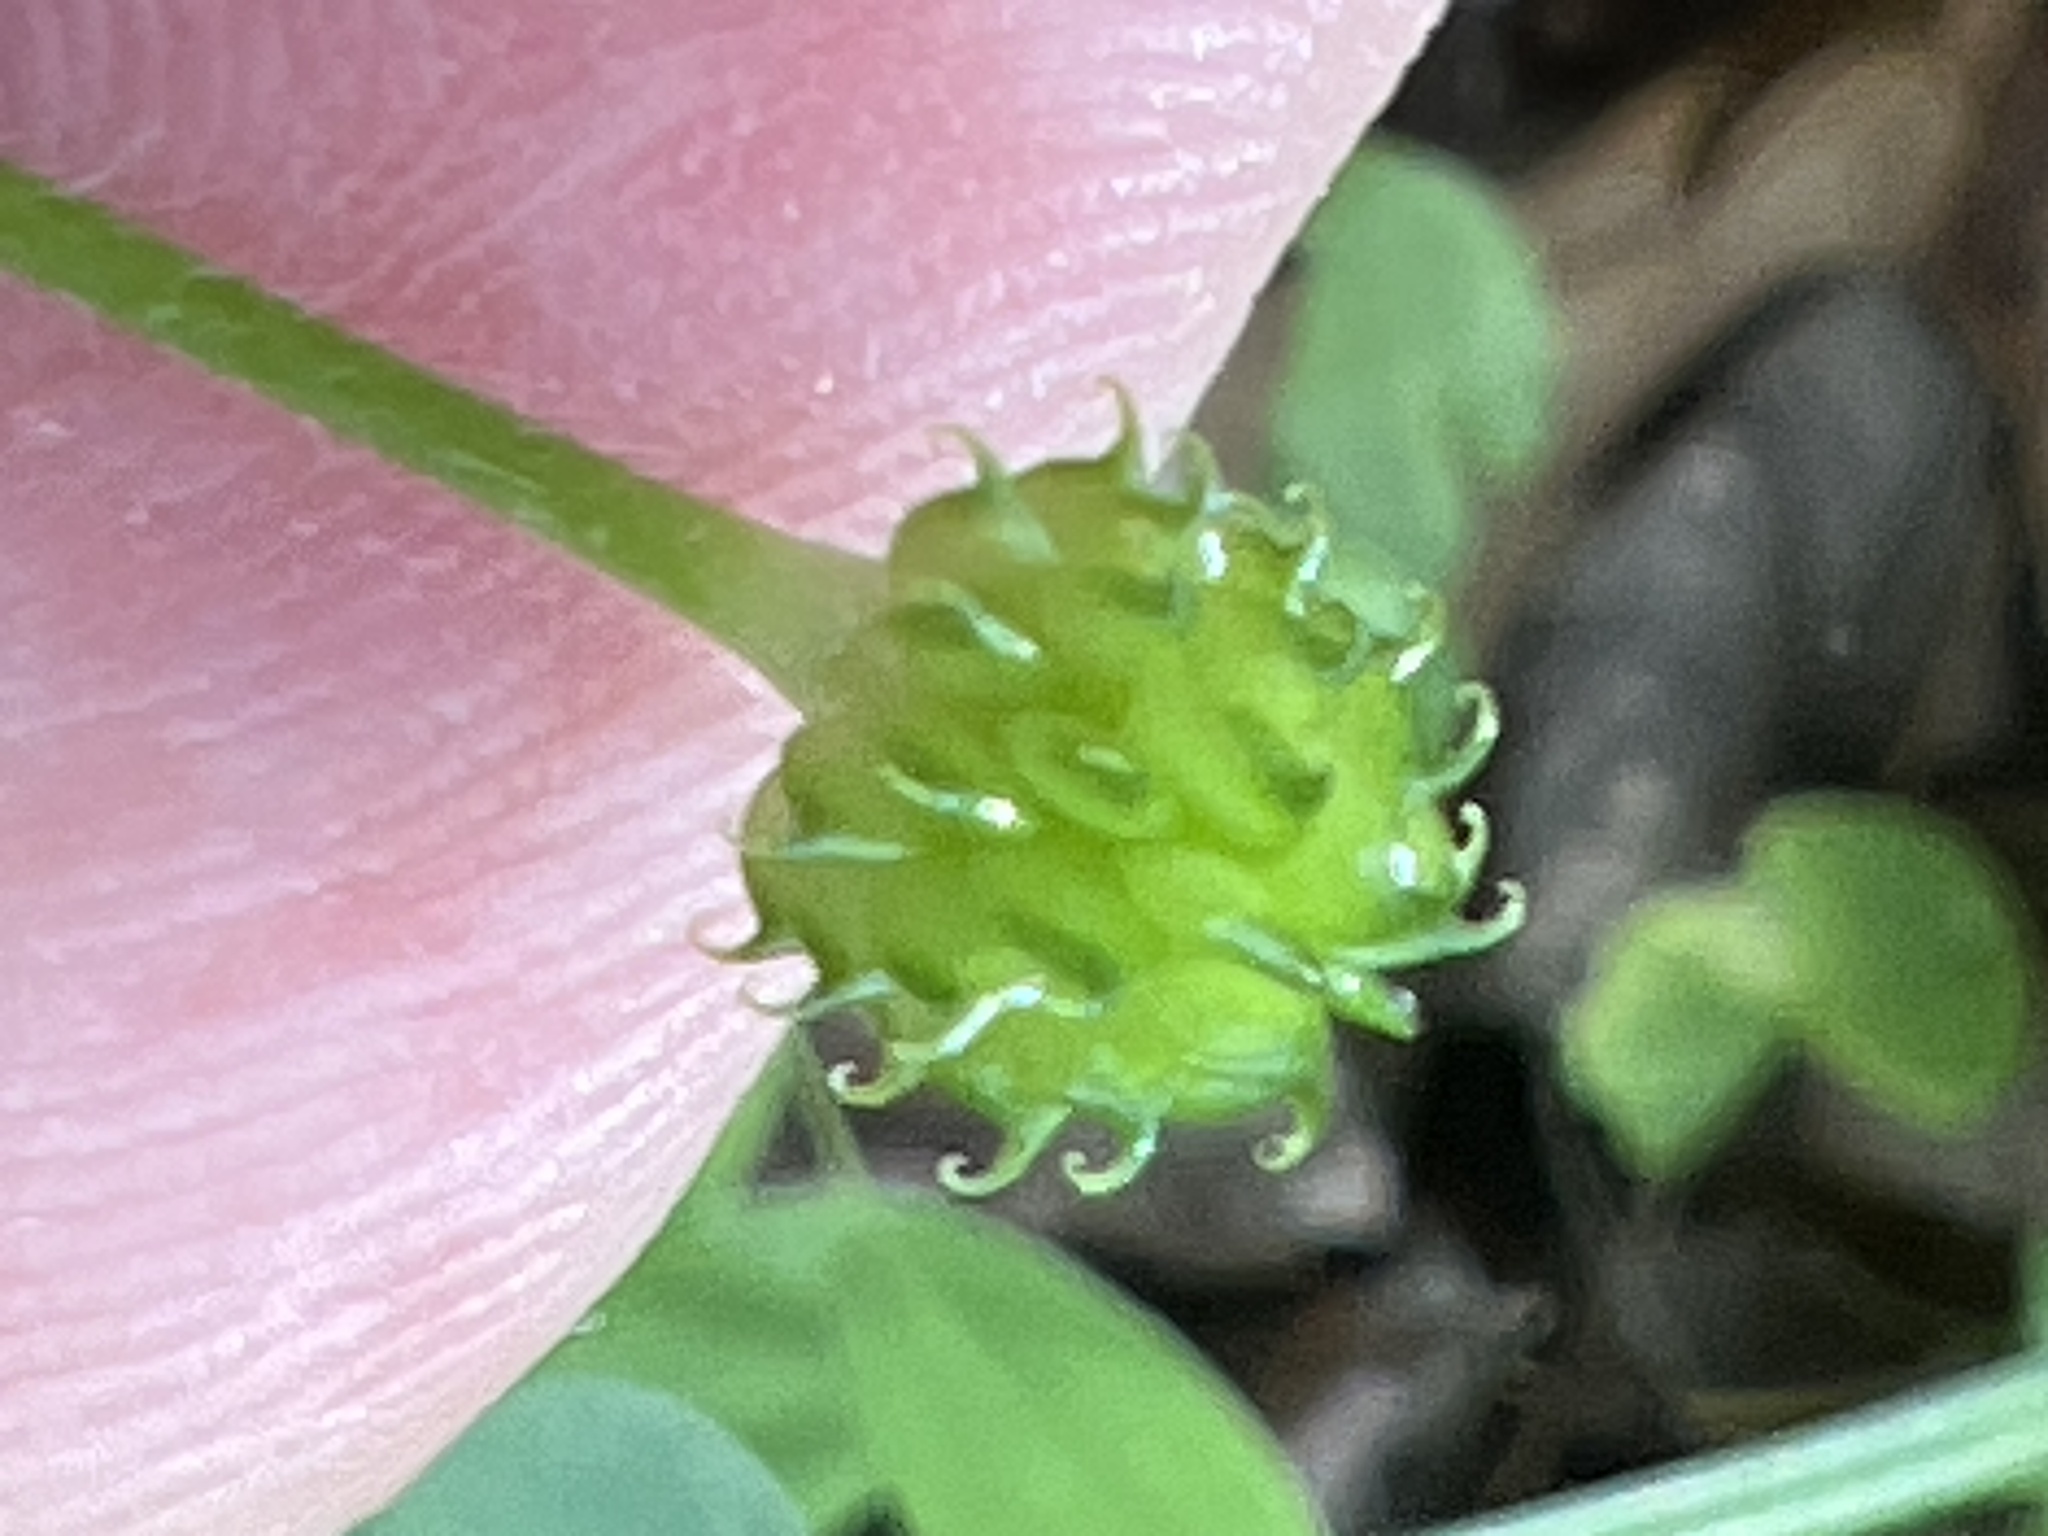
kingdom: Plantae
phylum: Tracheophyta
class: Magnoliopsida
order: Ranunculales
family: Ranunculaceae
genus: Ranunculus
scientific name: Ranunculus recurvatus
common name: Blisterwort
